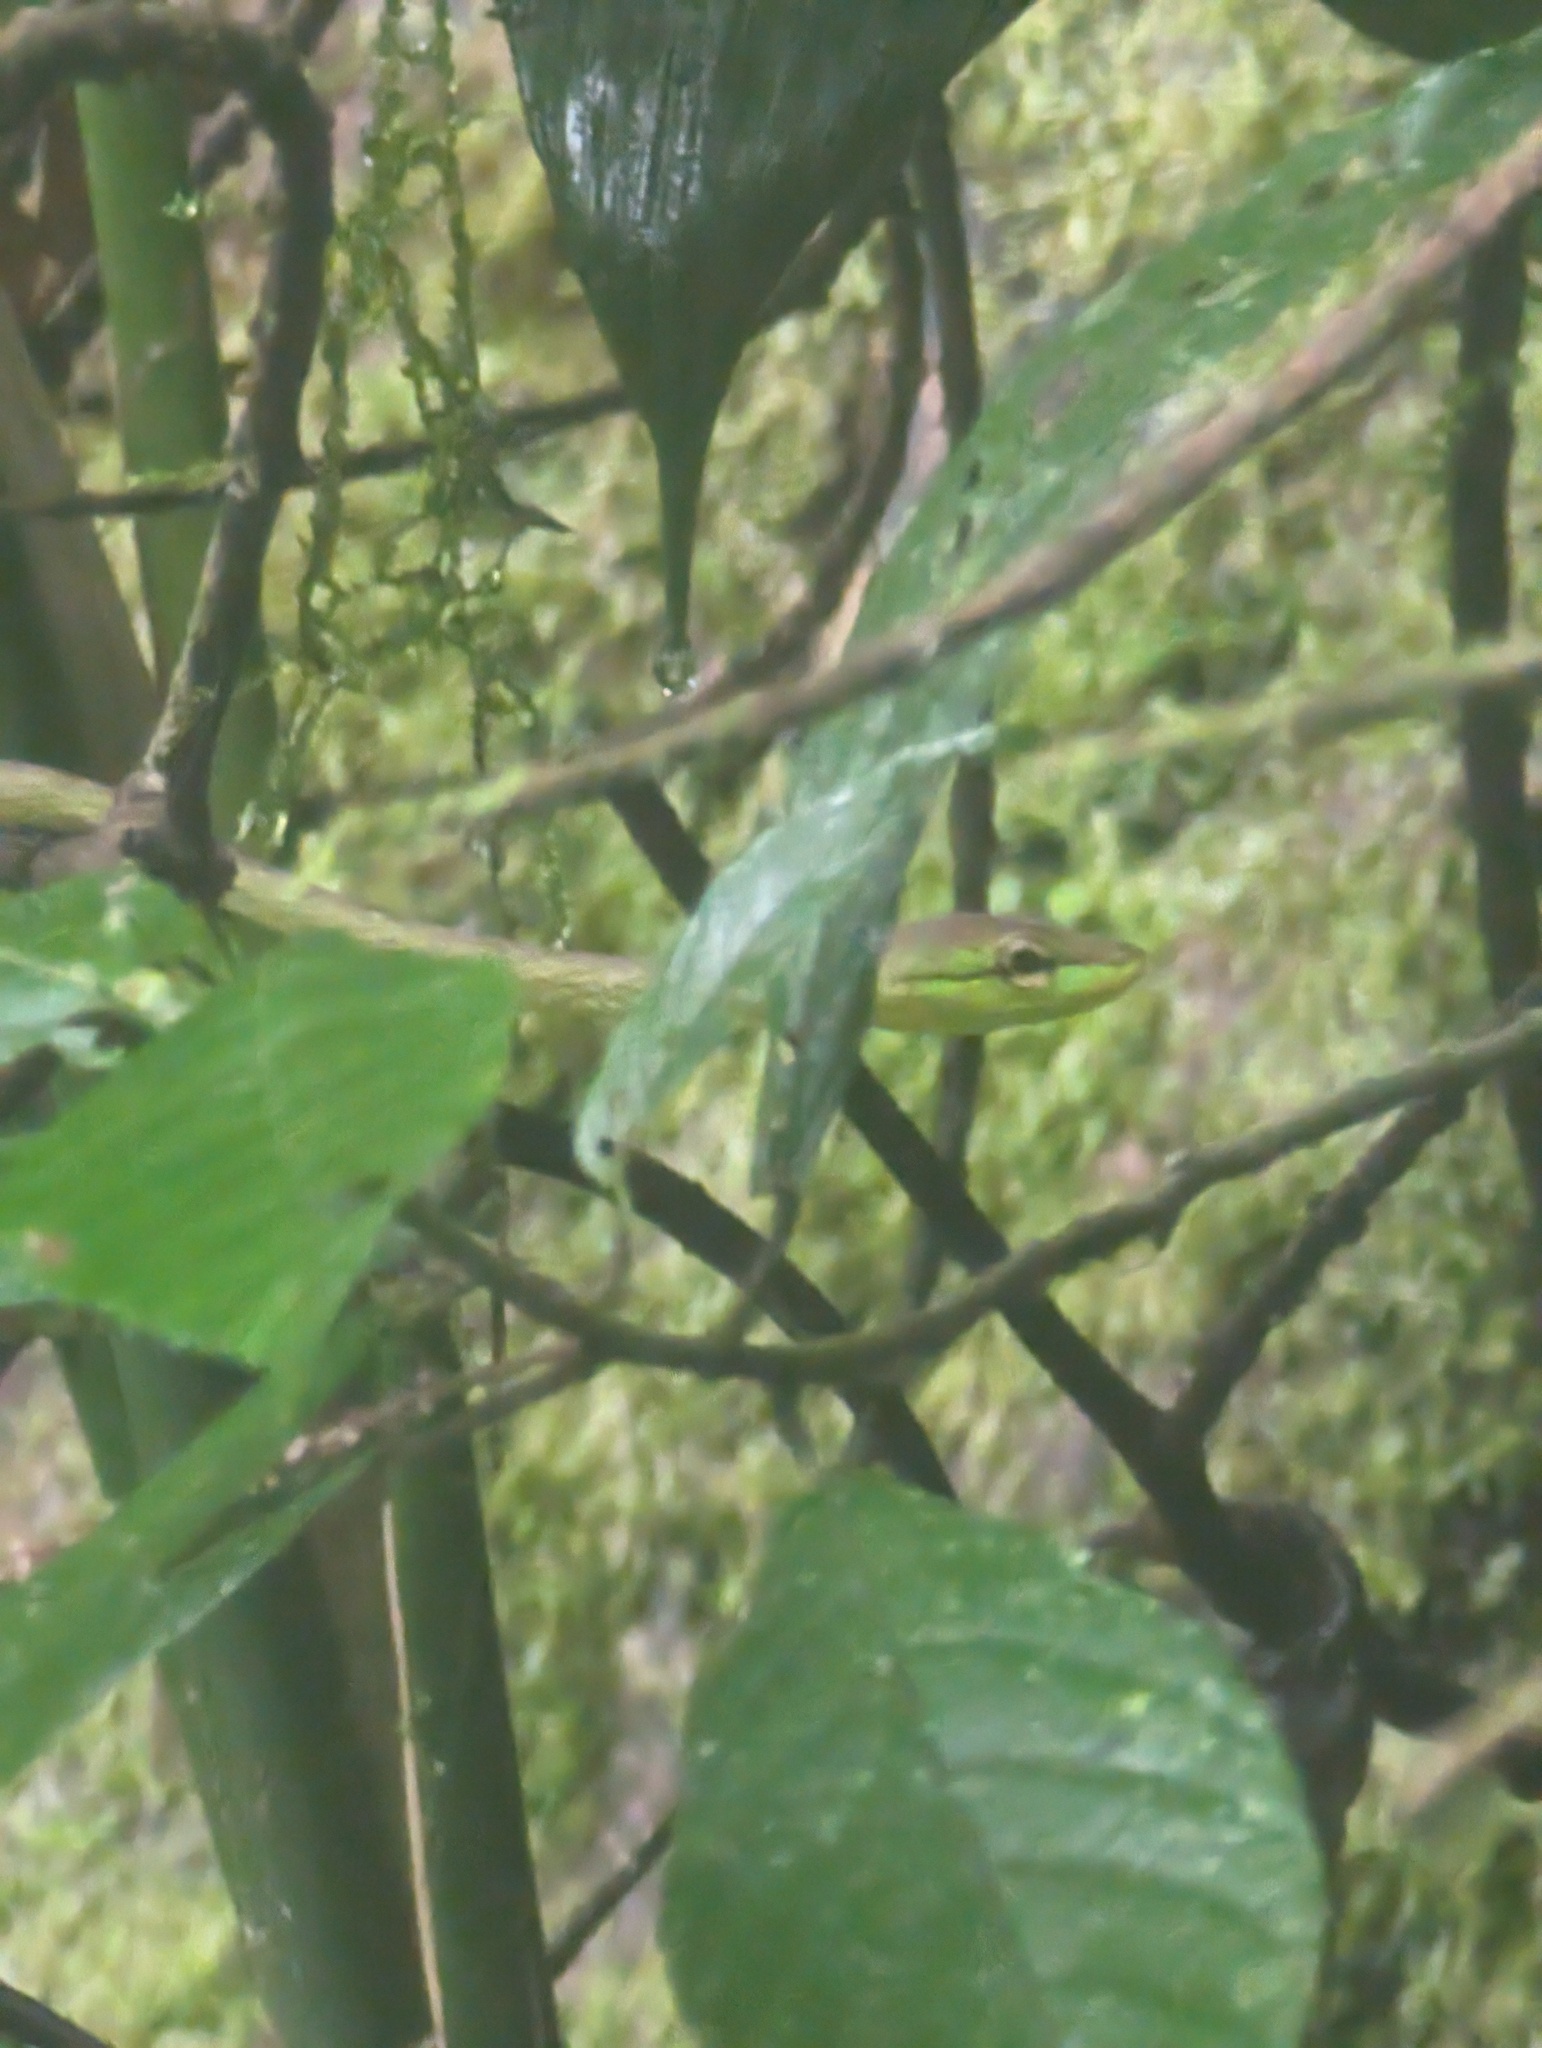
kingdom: Animalia
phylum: Chordata
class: Squamata
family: Colubridae
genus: Oxybelis
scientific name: Oxybelis brevirostris
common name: Cope's vine snake
